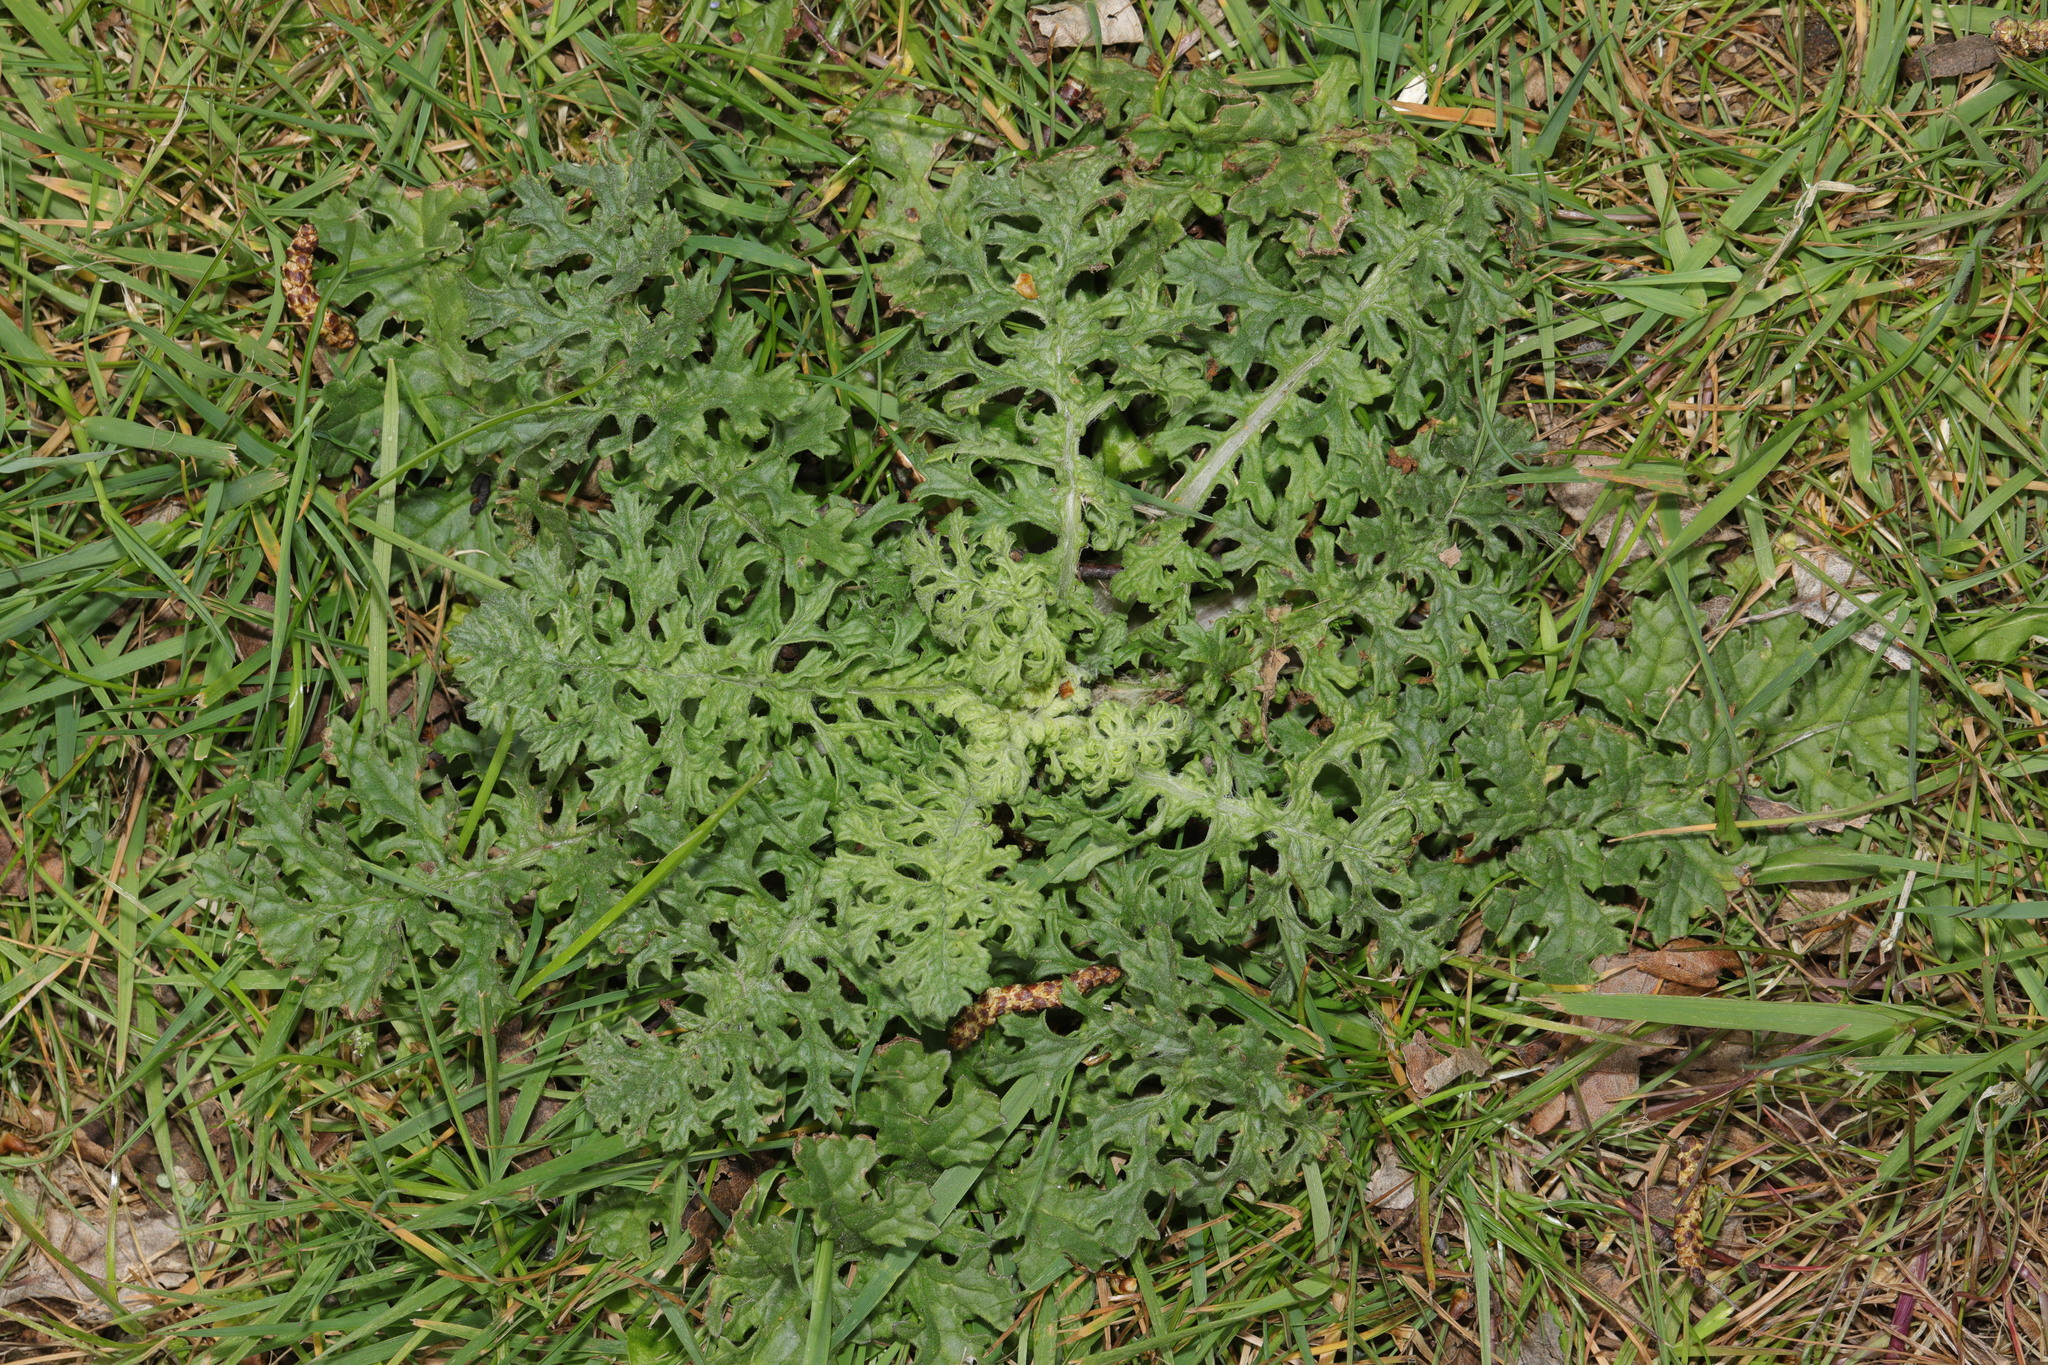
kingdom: Plantae
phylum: Tracheophyta
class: Magnoliopsida
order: Asterales
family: Asteraceae
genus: Jacobaea
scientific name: Jacobaea vulgaris
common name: Stinking willie
